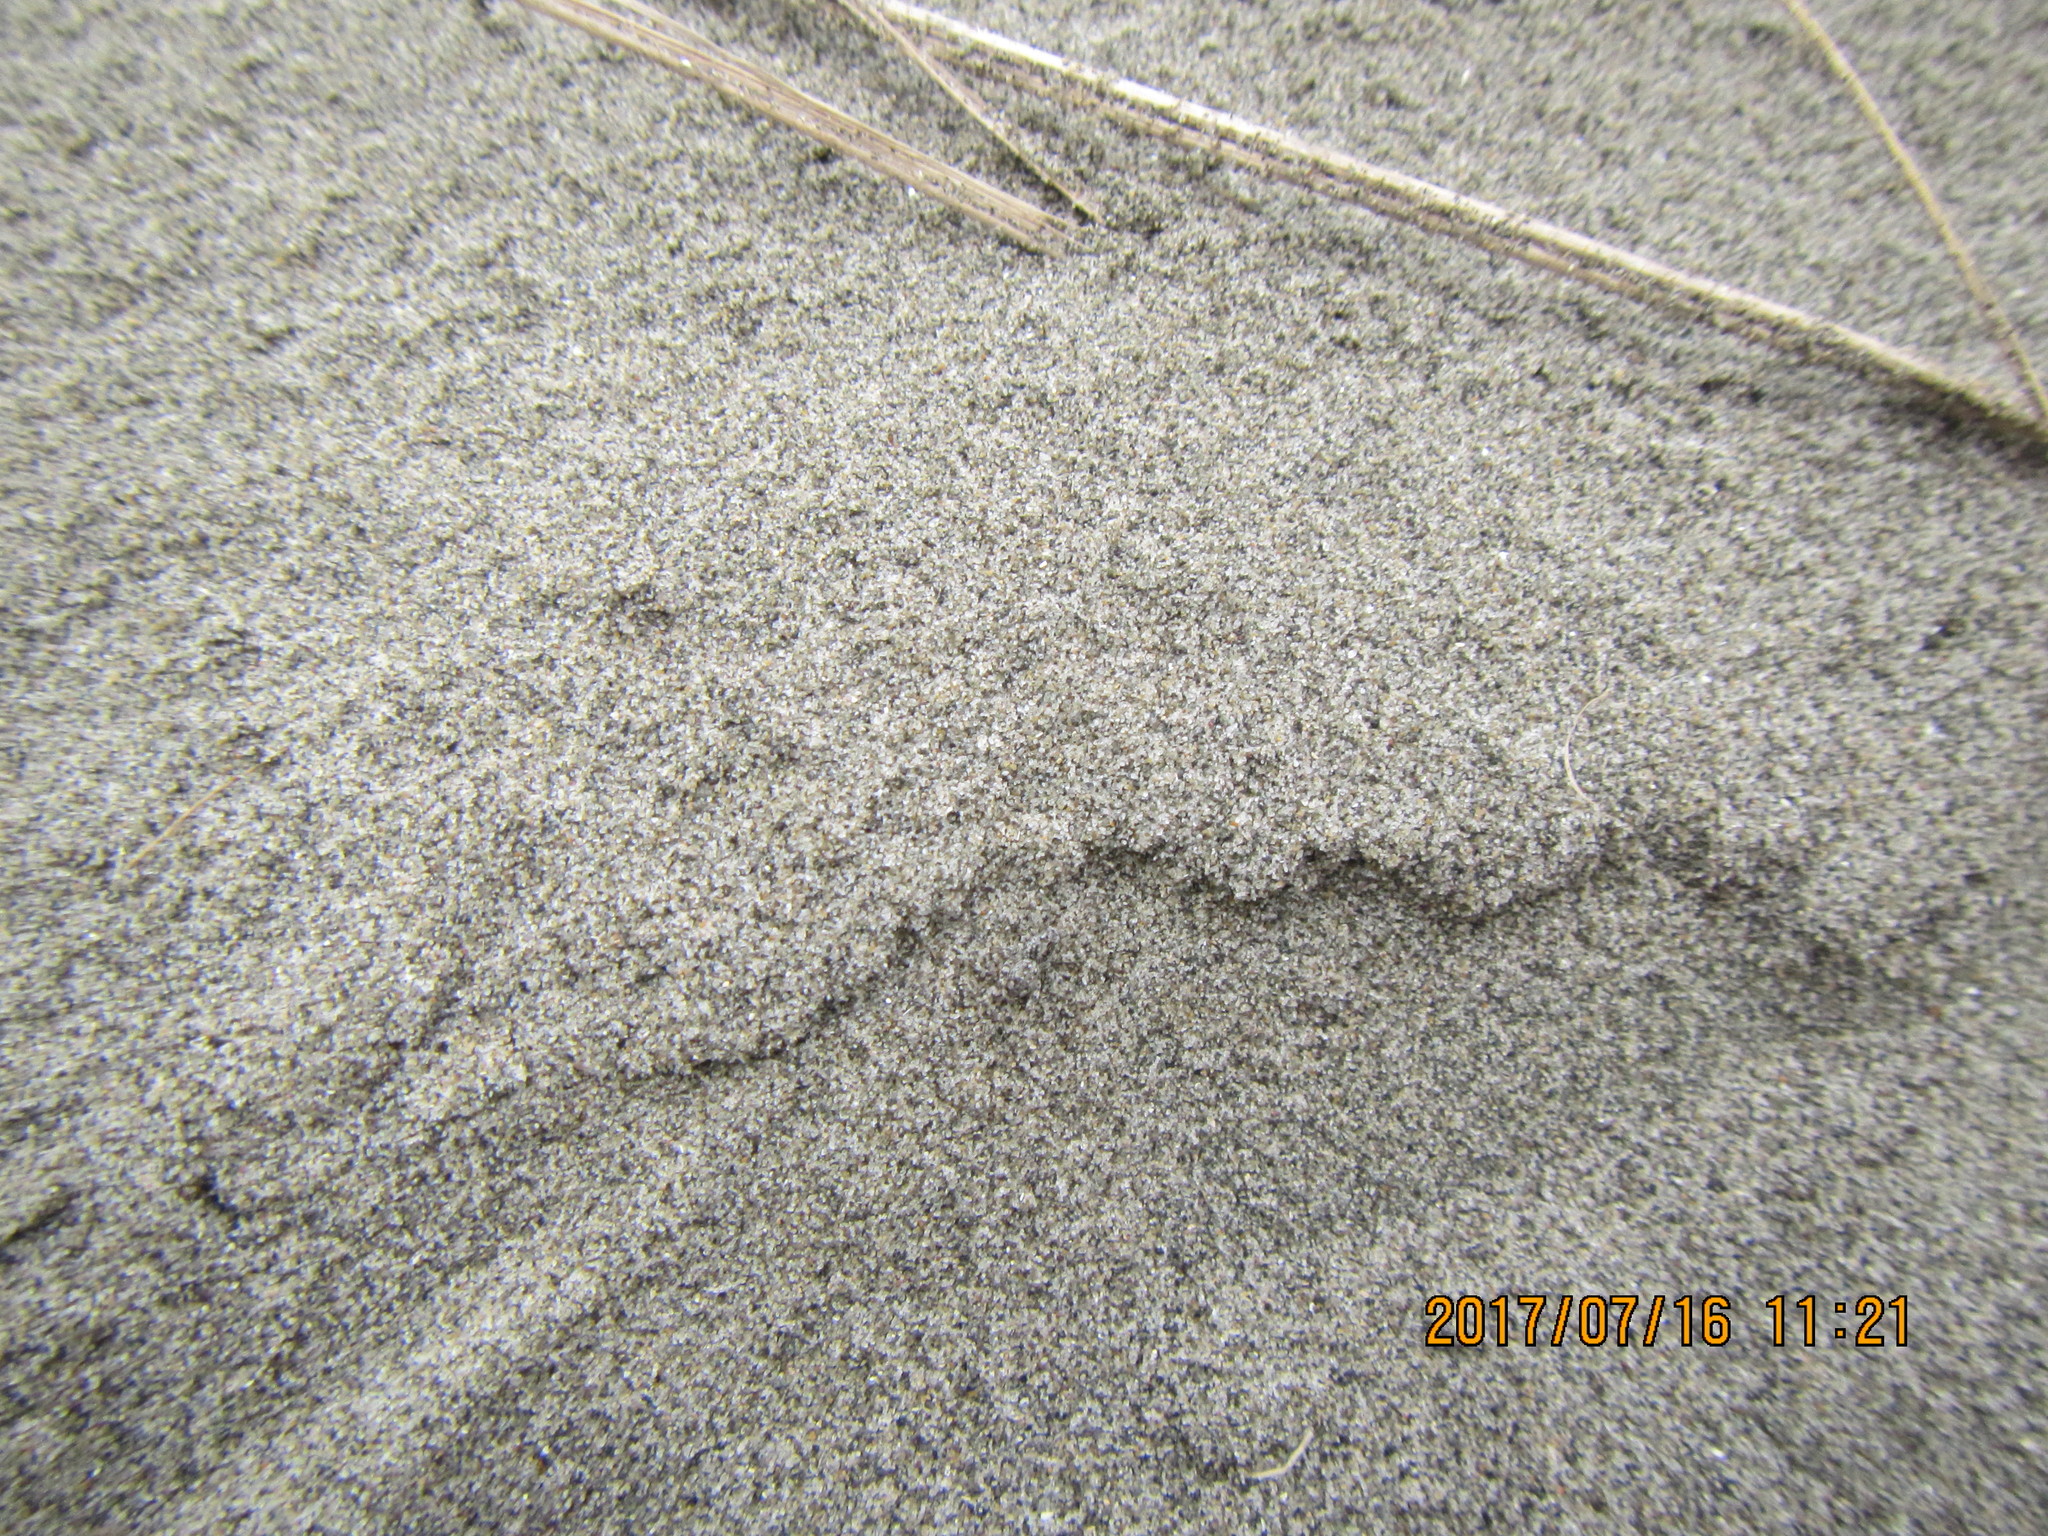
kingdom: Animalia
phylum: Arthropoda
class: Arachnida
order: Araneae
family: Lycosidae
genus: Anoteropsis
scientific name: Anoteropsis litoralis
